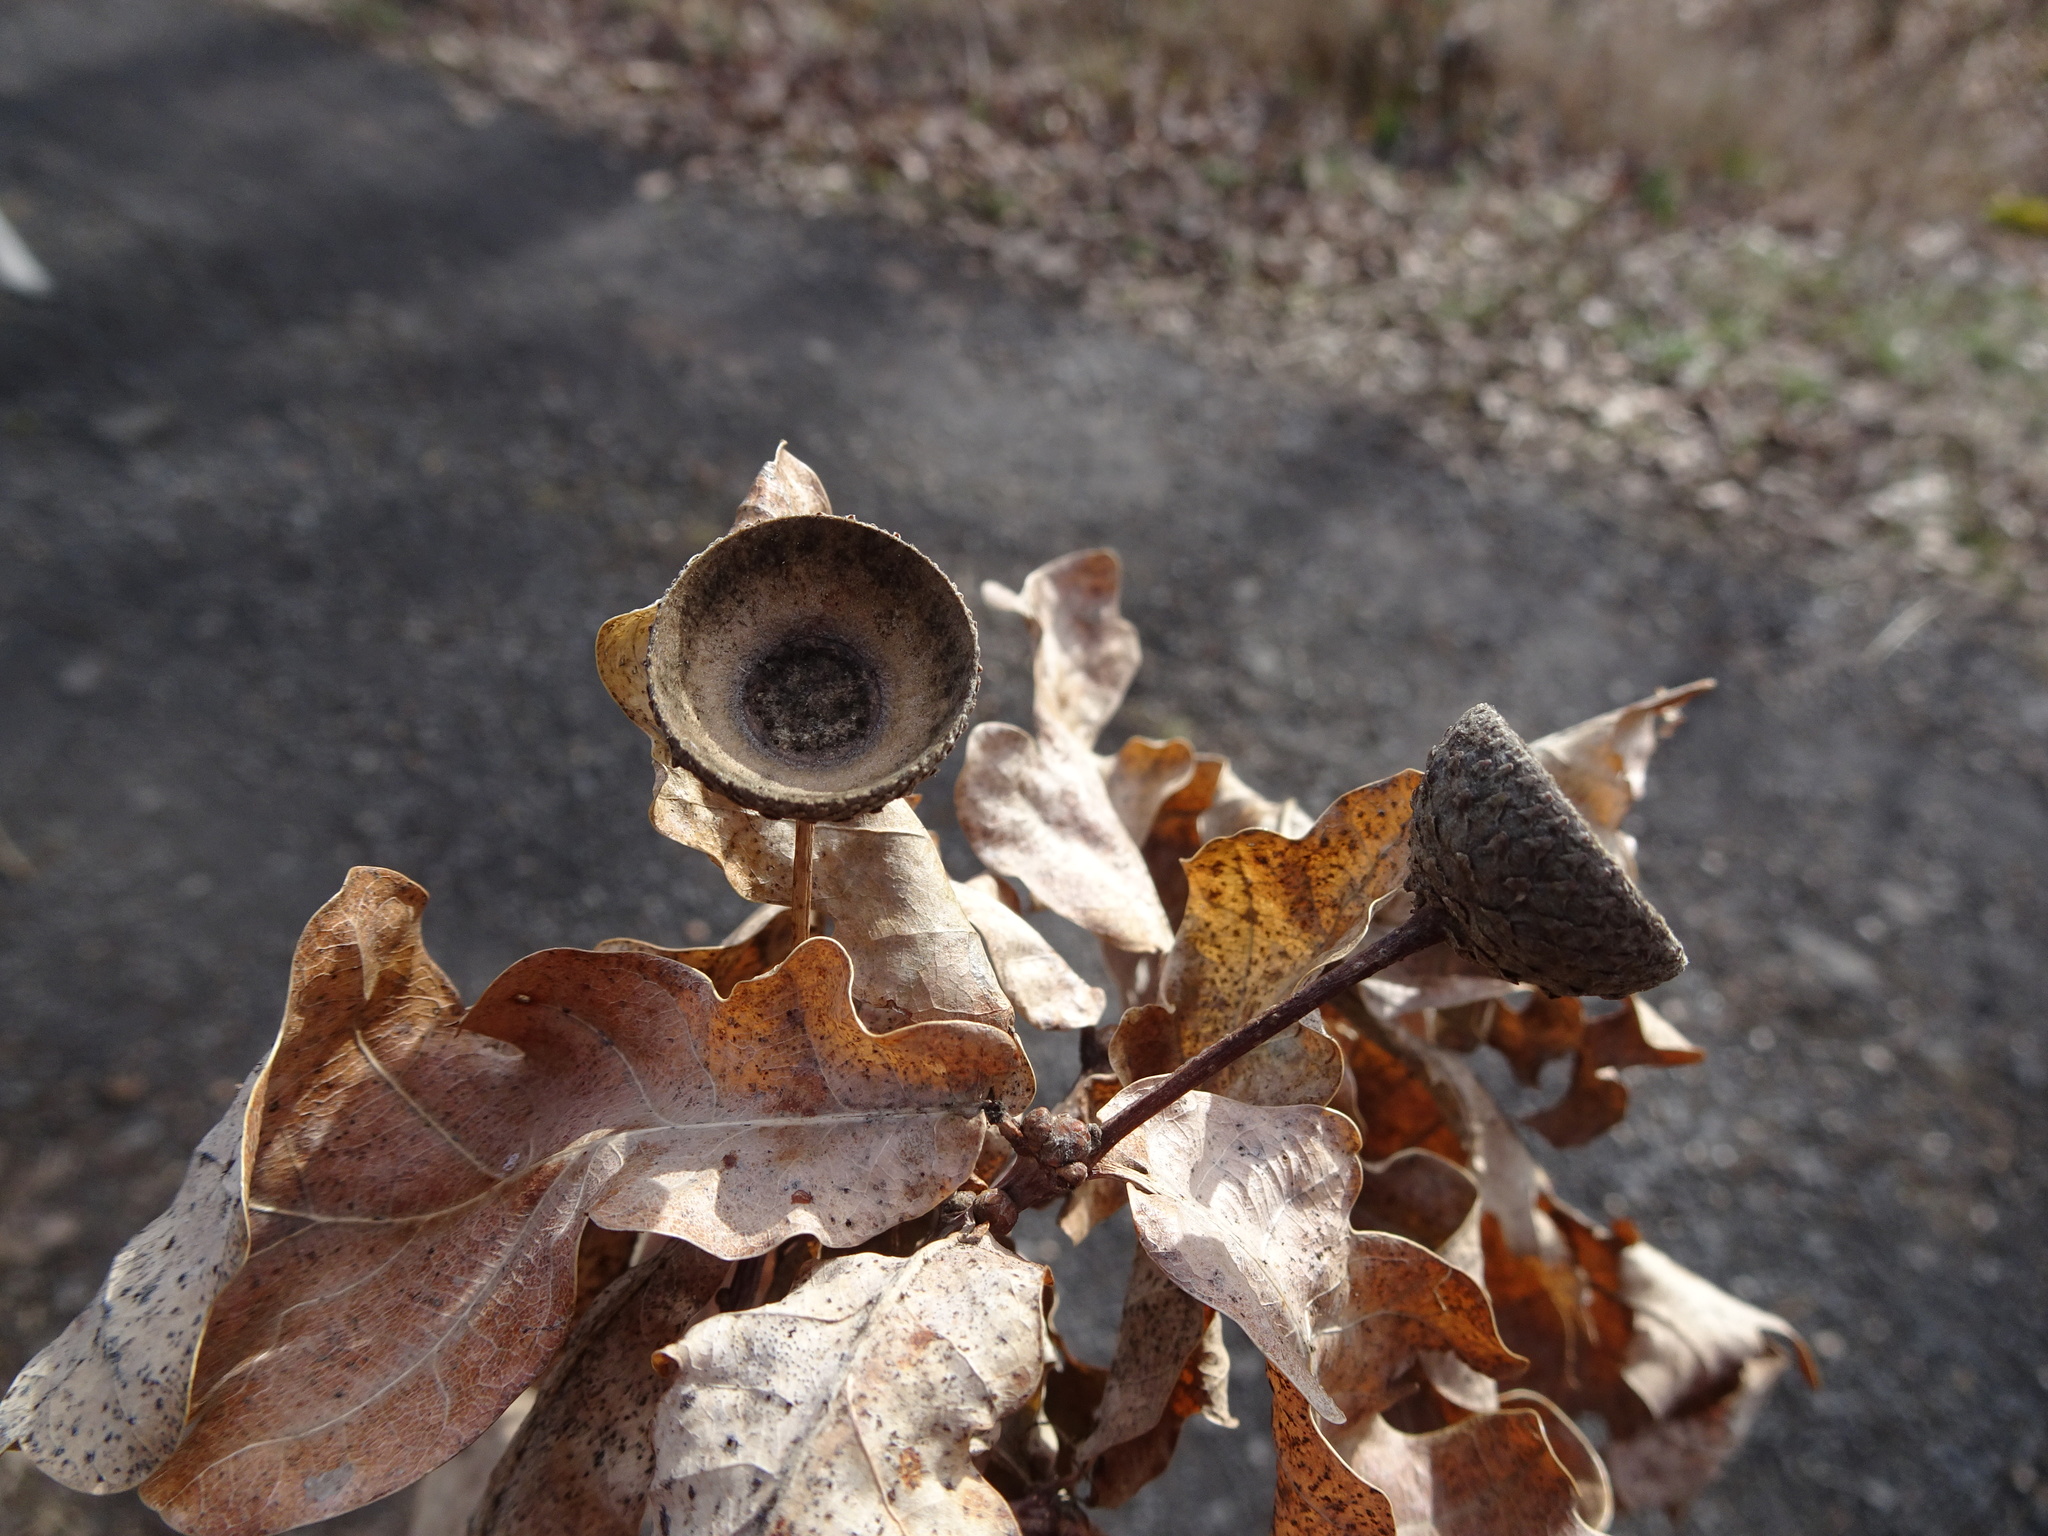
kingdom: Plantae
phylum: Tracheophyta
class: Magnoliopsida
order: Fagales
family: Fagaceae
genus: Quercus
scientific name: Quercus robur
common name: Pedunculate oak
